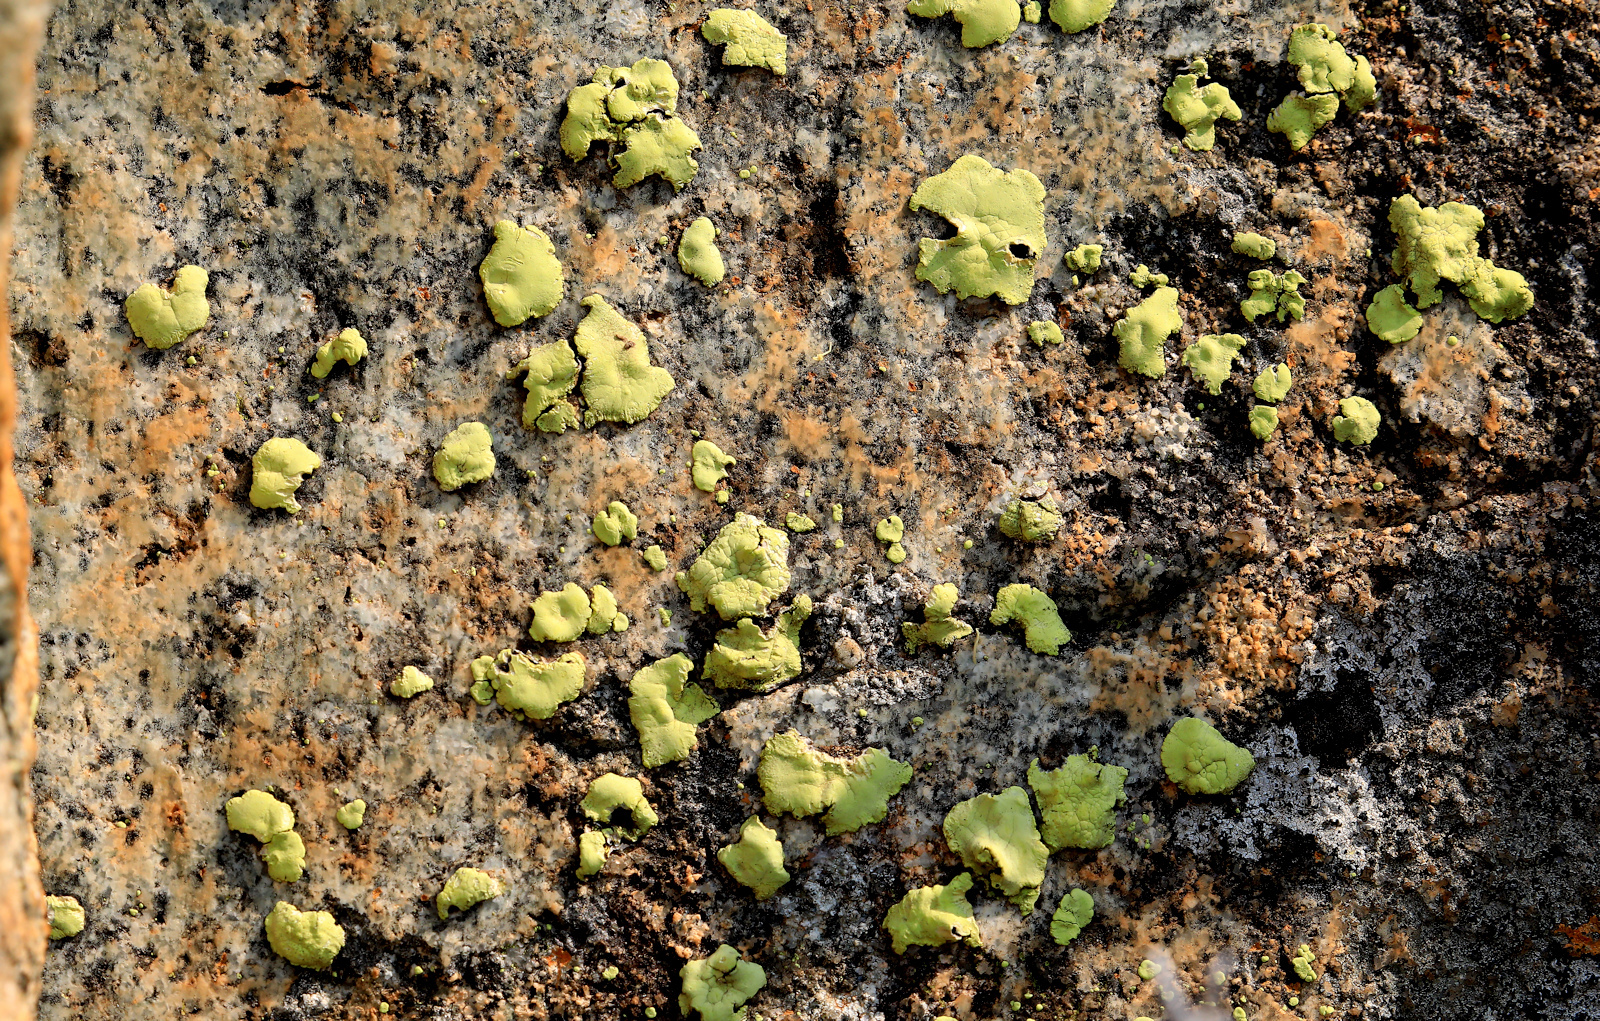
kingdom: Fungi
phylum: Ascomycota
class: Lecanoromycetes
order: Caliciales
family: Caliciaceae
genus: Dermatiscum
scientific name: Dermatiscum thunbergii
